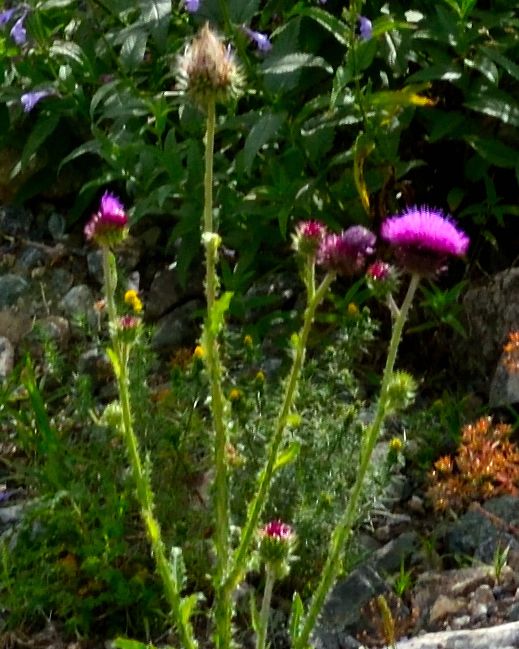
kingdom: Plantae
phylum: Tracheophyta
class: Magnoliopsida
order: Asterales
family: Asteraceae
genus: Carduus
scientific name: Carduus crispus
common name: Welted thistle
